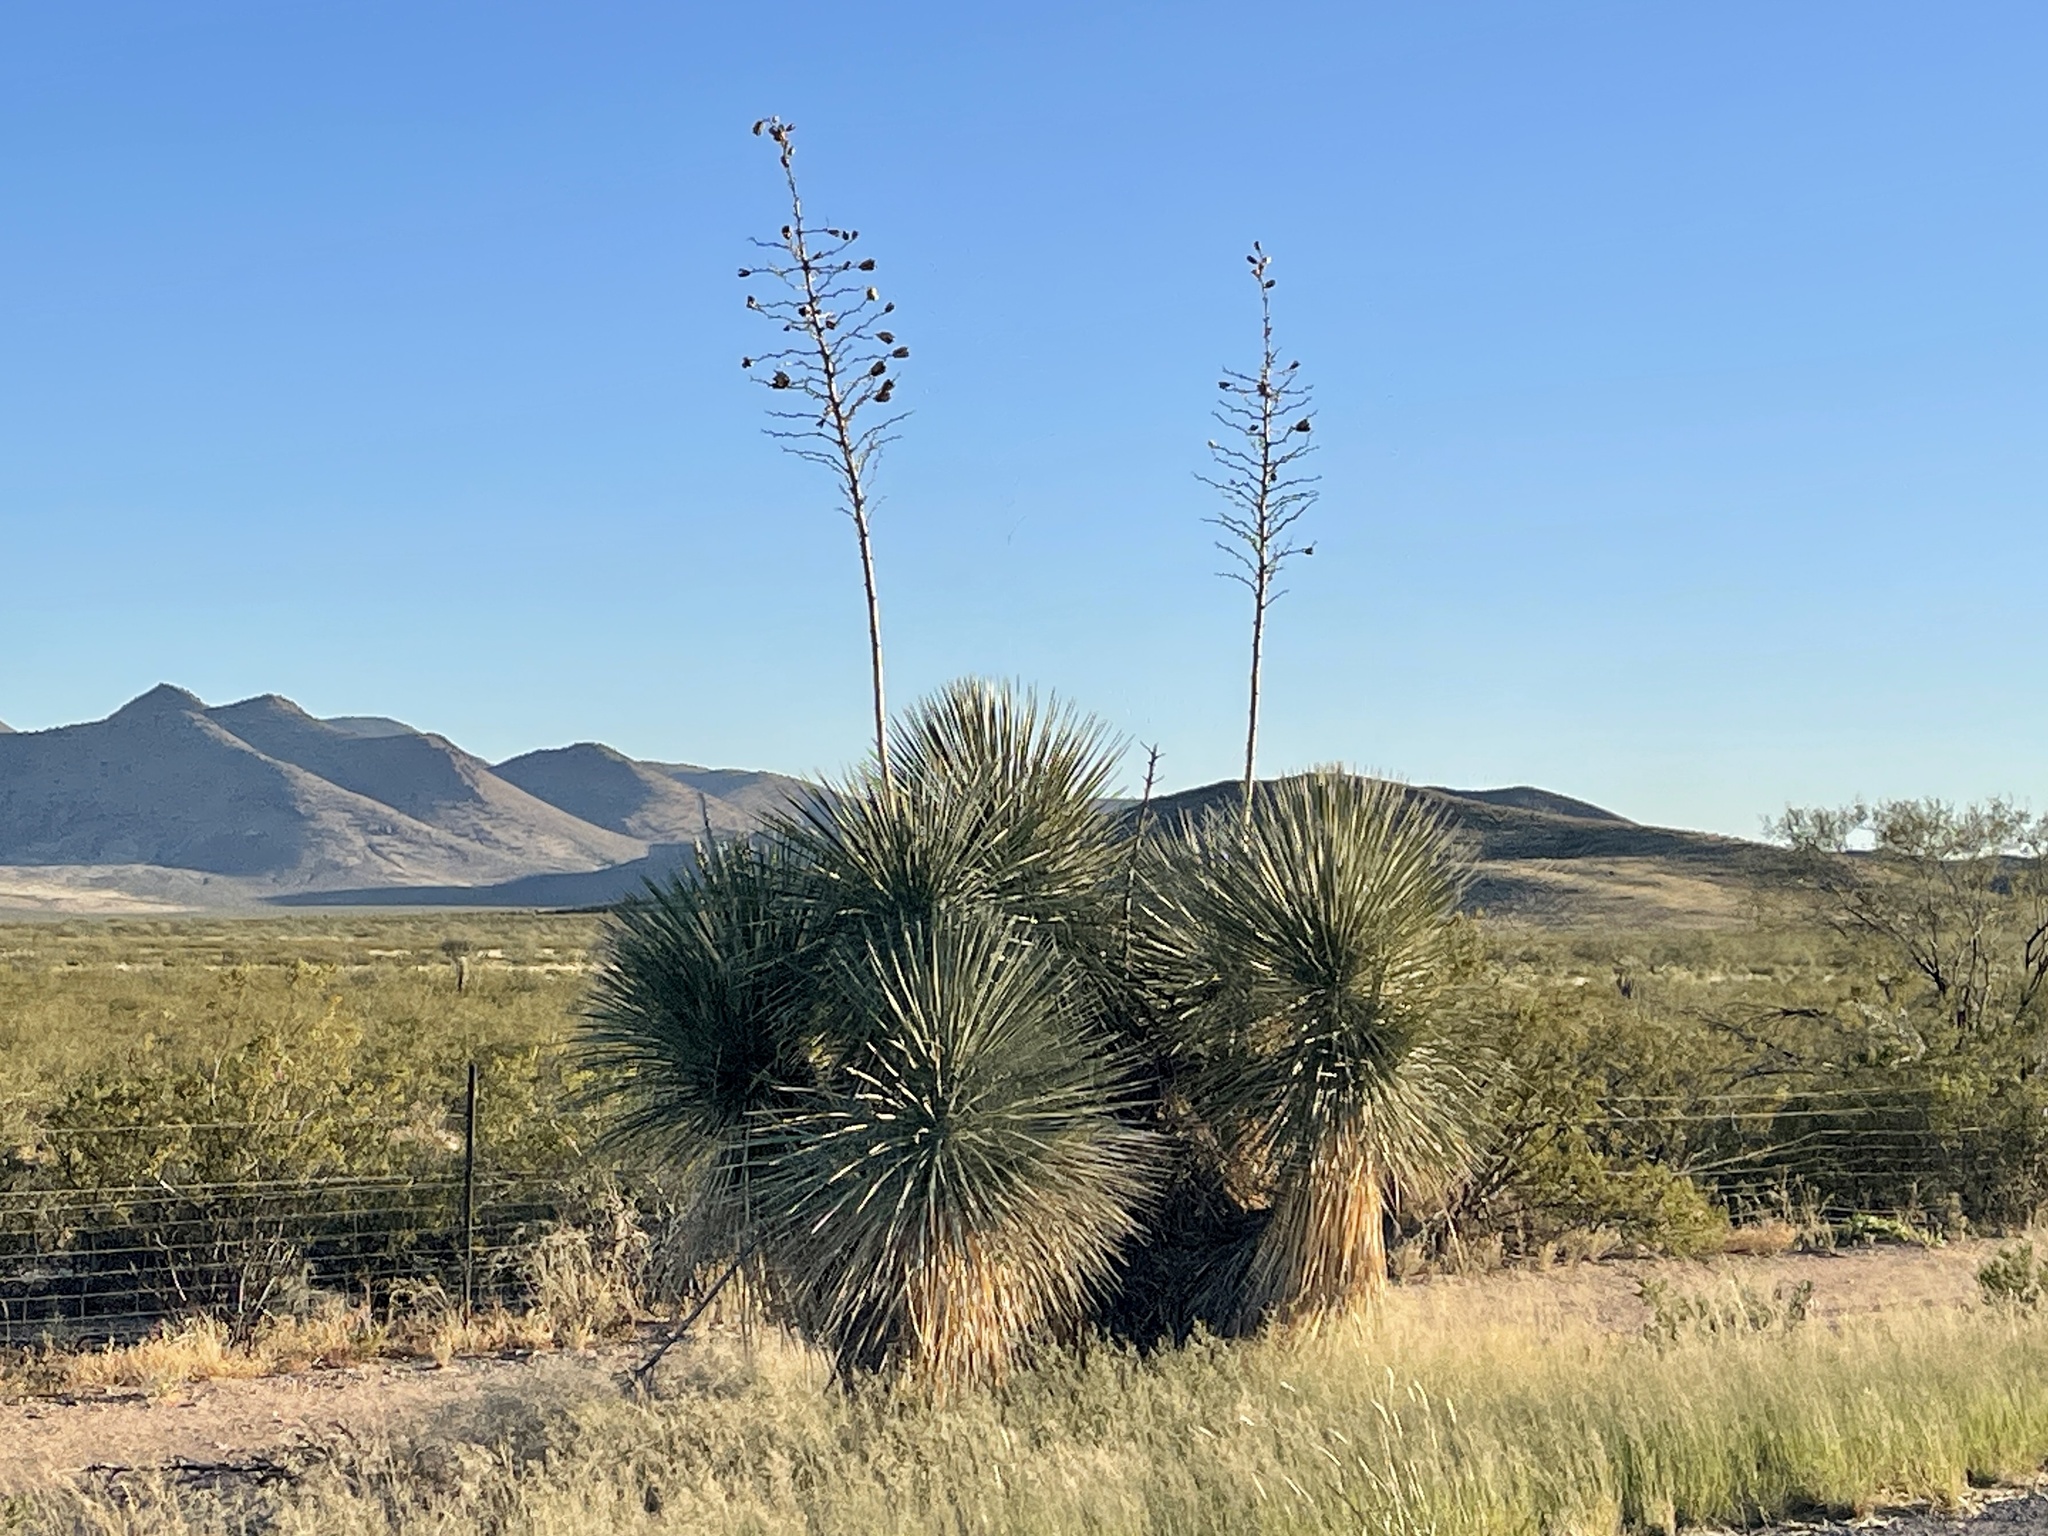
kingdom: Plantae
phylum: Tracheophyta
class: Liliopsida
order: Asparagales
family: Asparagaceae
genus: Yucca
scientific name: Yucca elata
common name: Palmella
